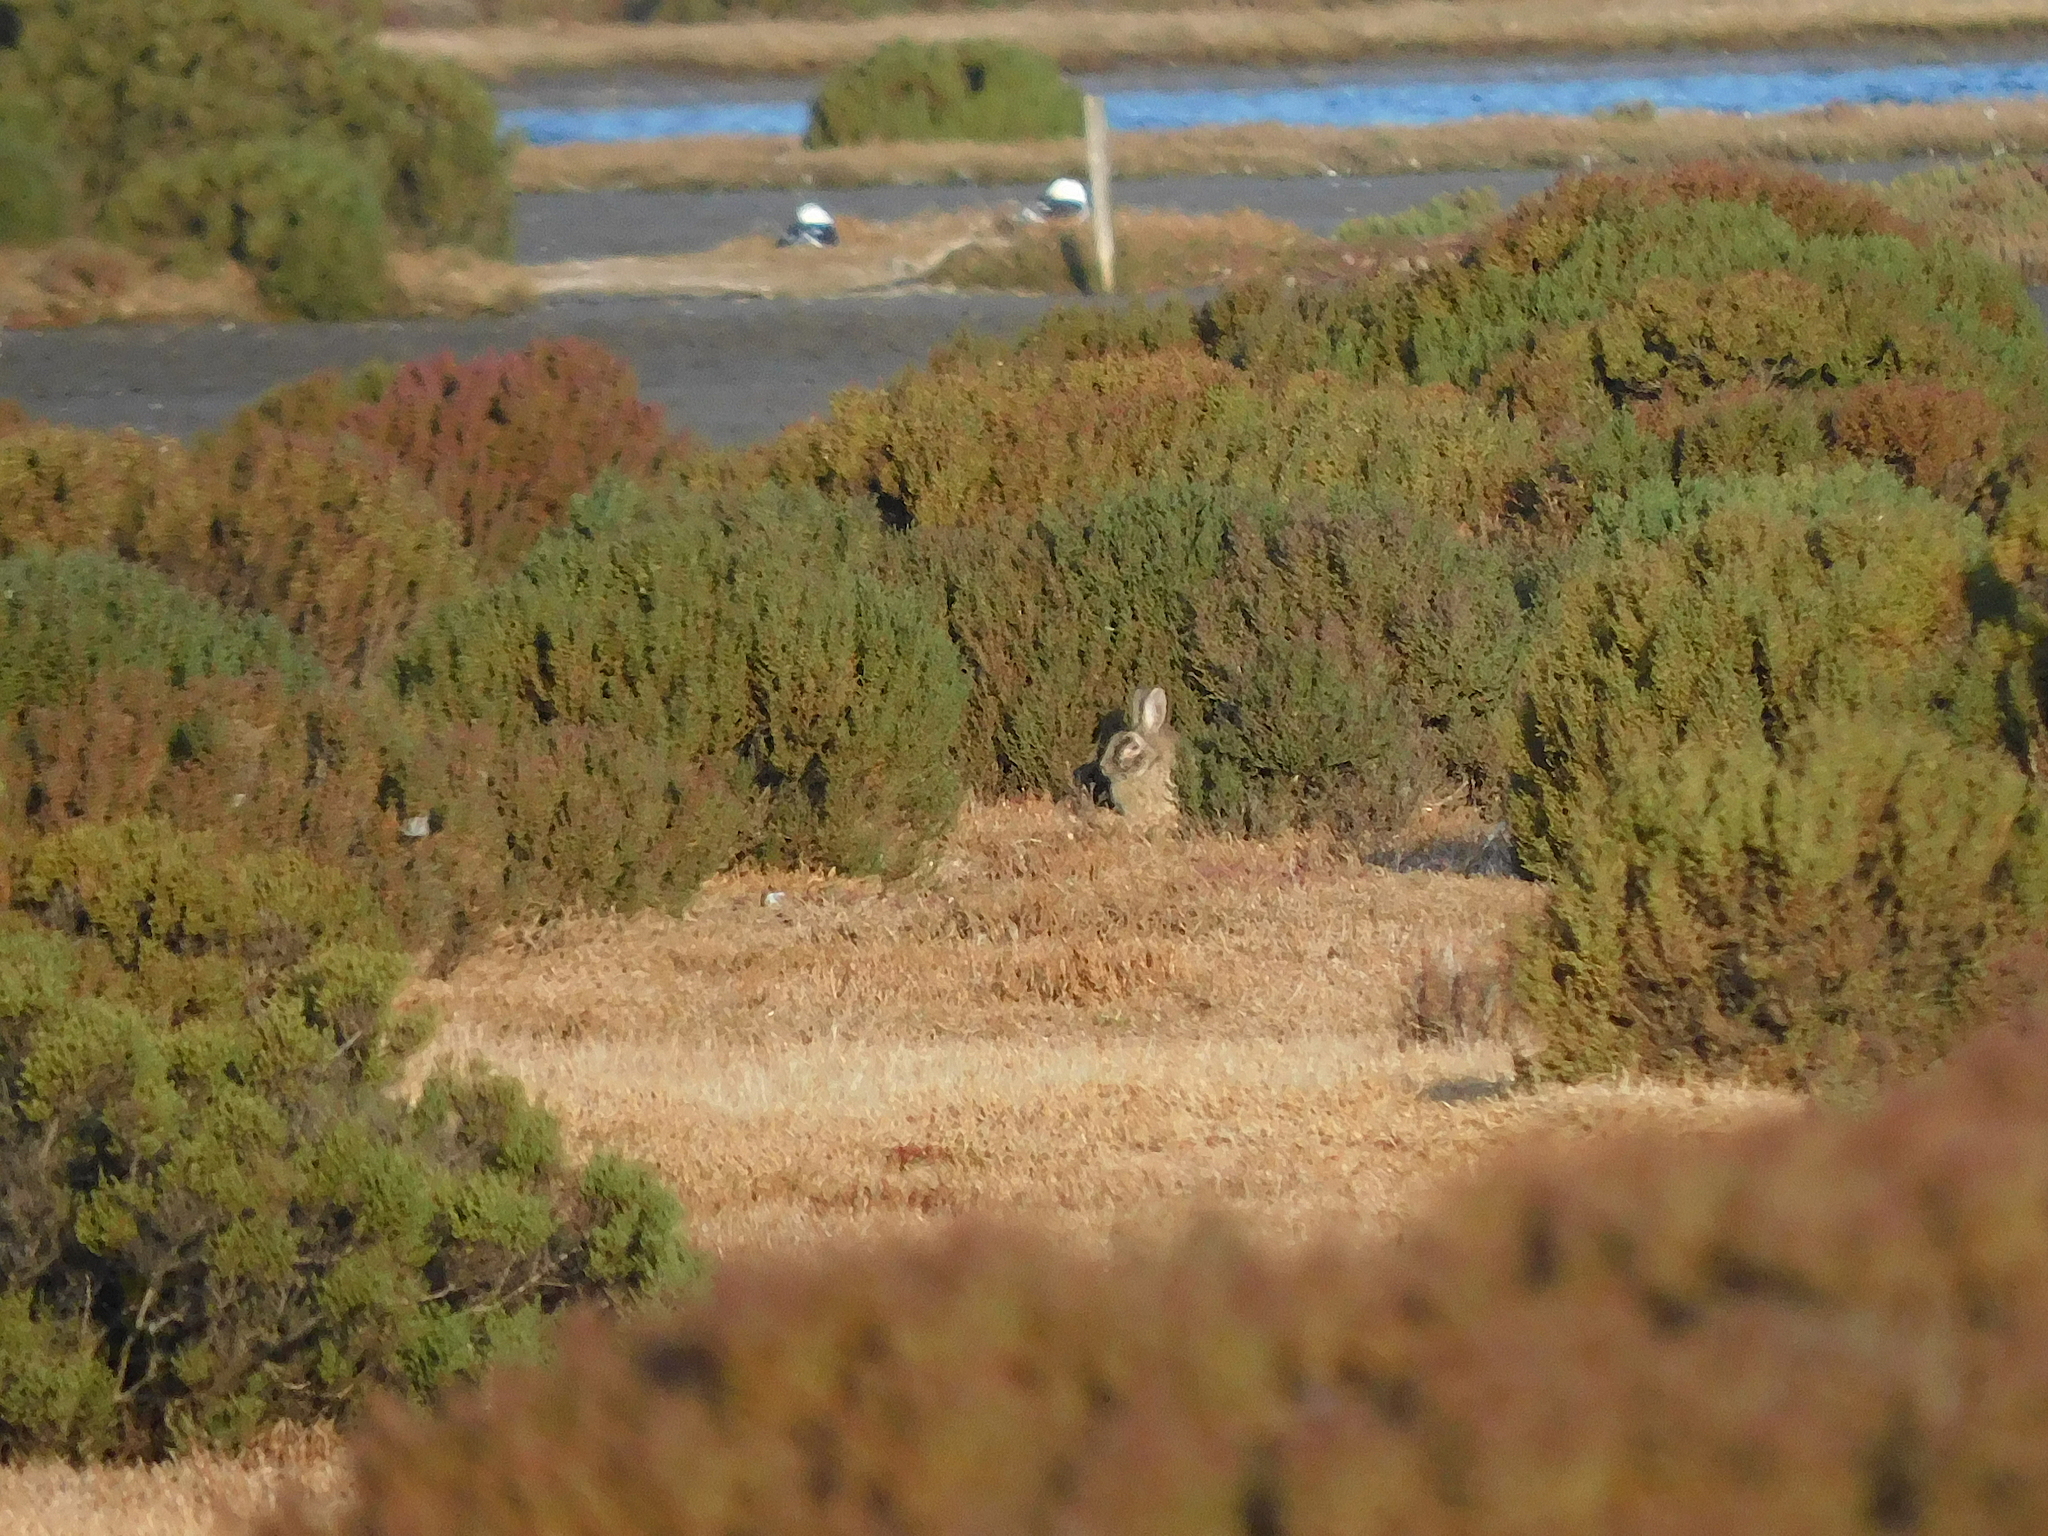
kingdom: Animalia
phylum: Chordata
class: Mammalia
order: Lagomorpha
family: Leporidae
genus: Oryctolagus
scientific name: Oryctolagus cuniculus
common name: European rabbit
